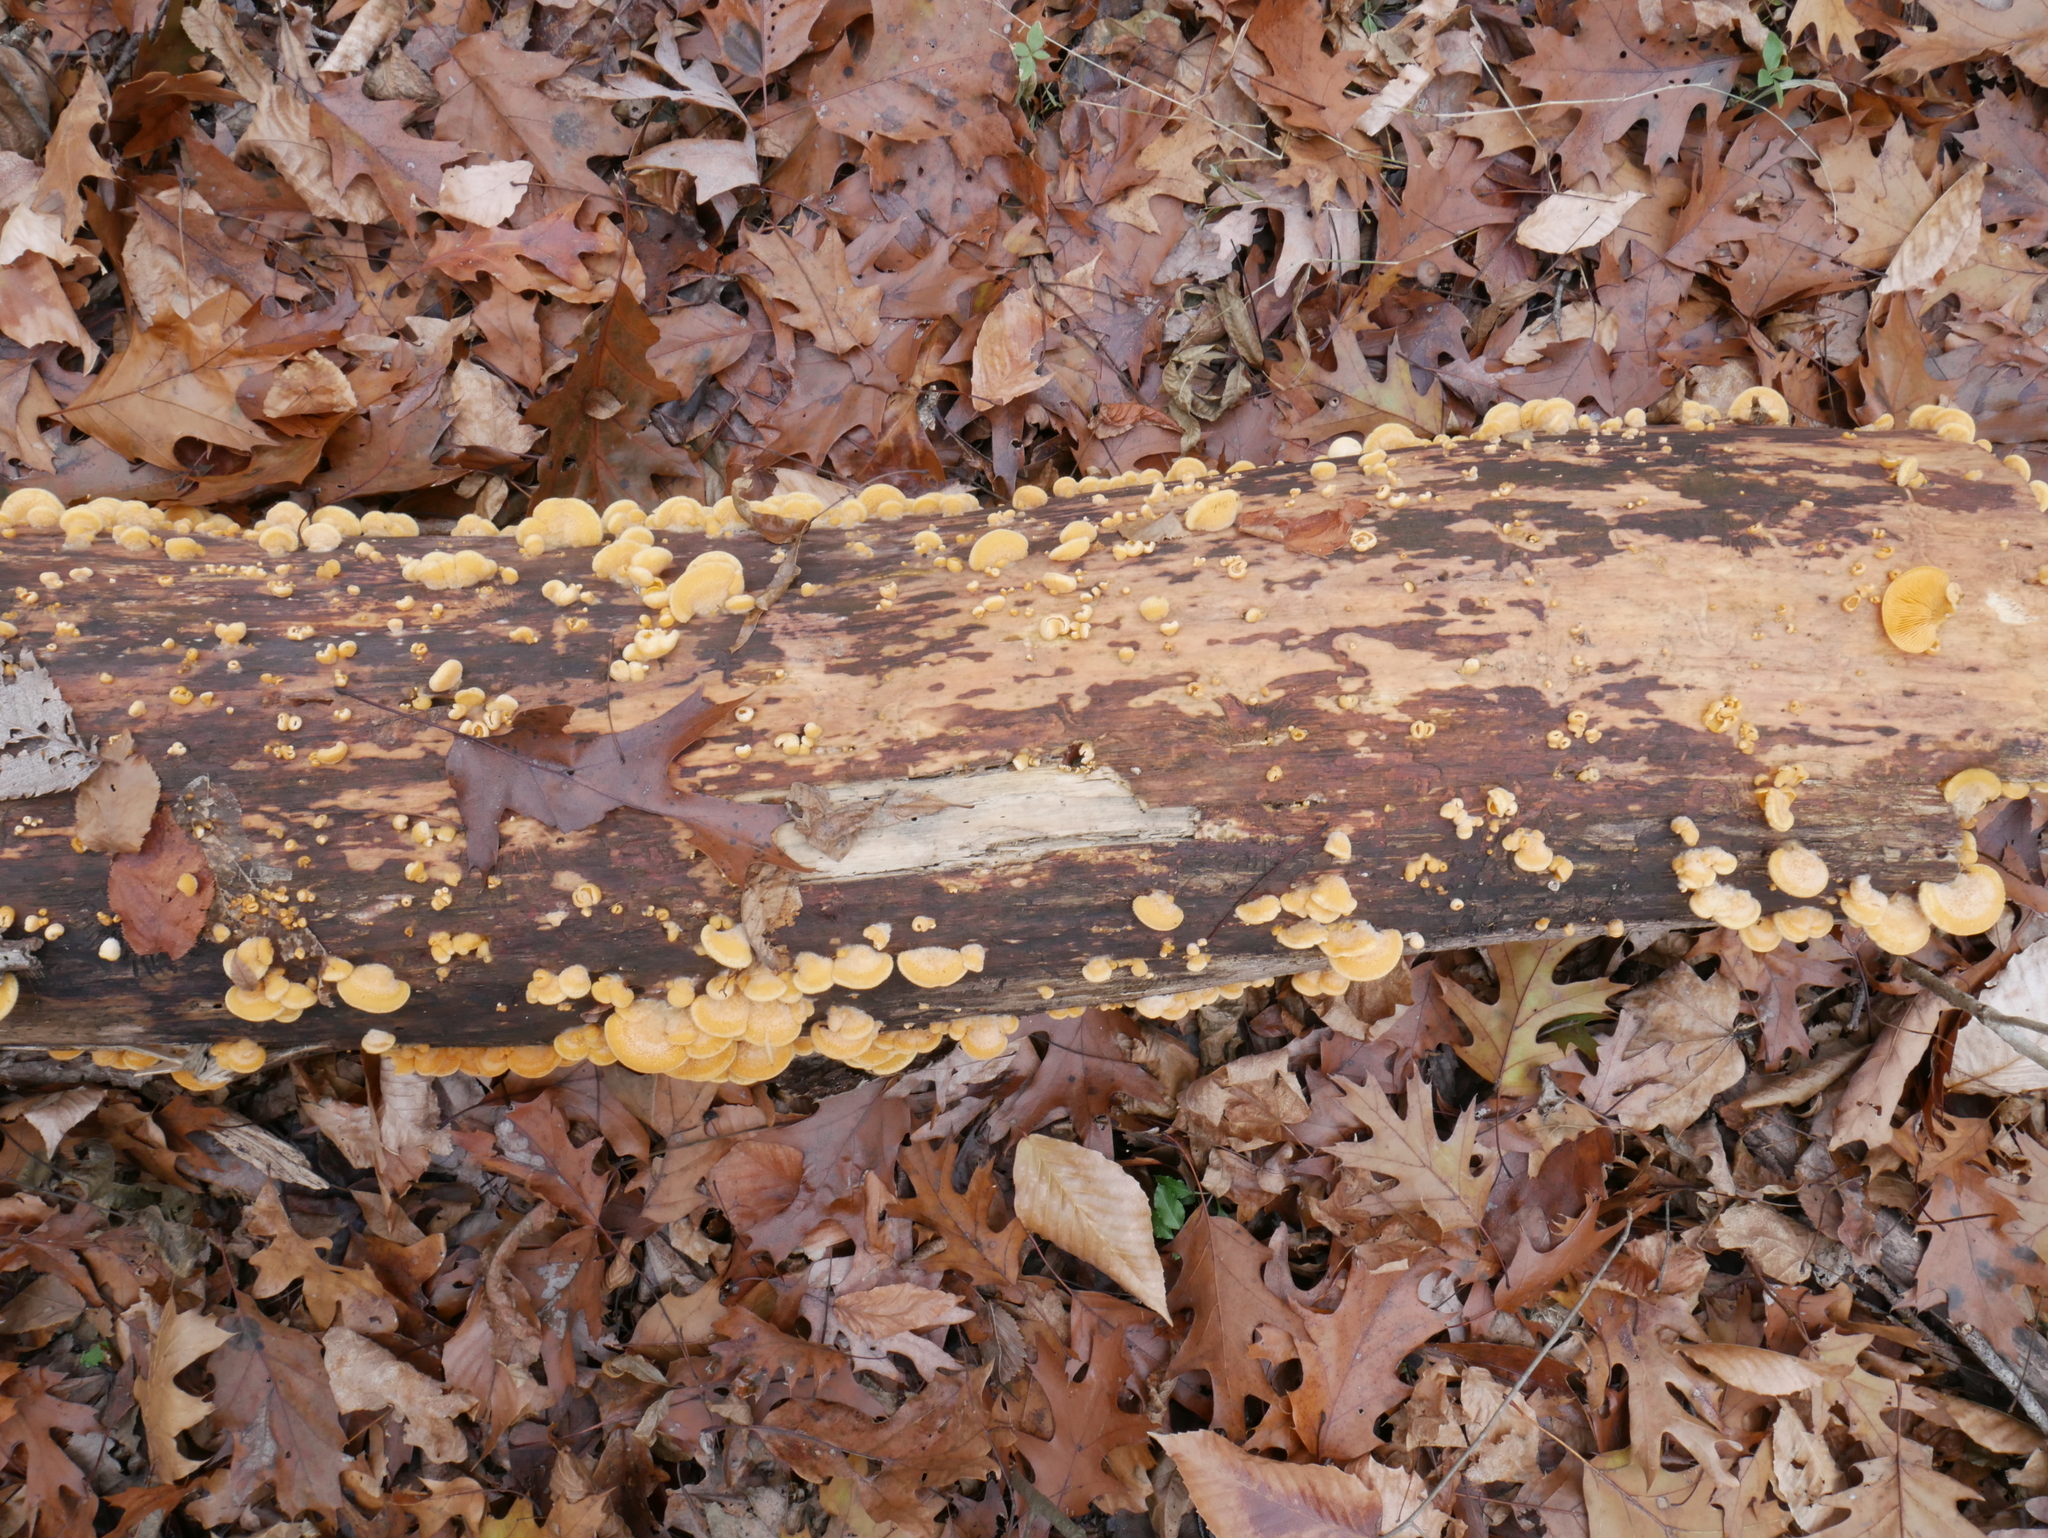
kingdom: Fungi
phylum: Basidiomycota
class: Agaricomycetes
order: Agaricales
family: Phyllotopsidaceae
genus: Phyllotopsis
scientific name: Phyllotopsis nidulans
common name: Orange mock oyster
